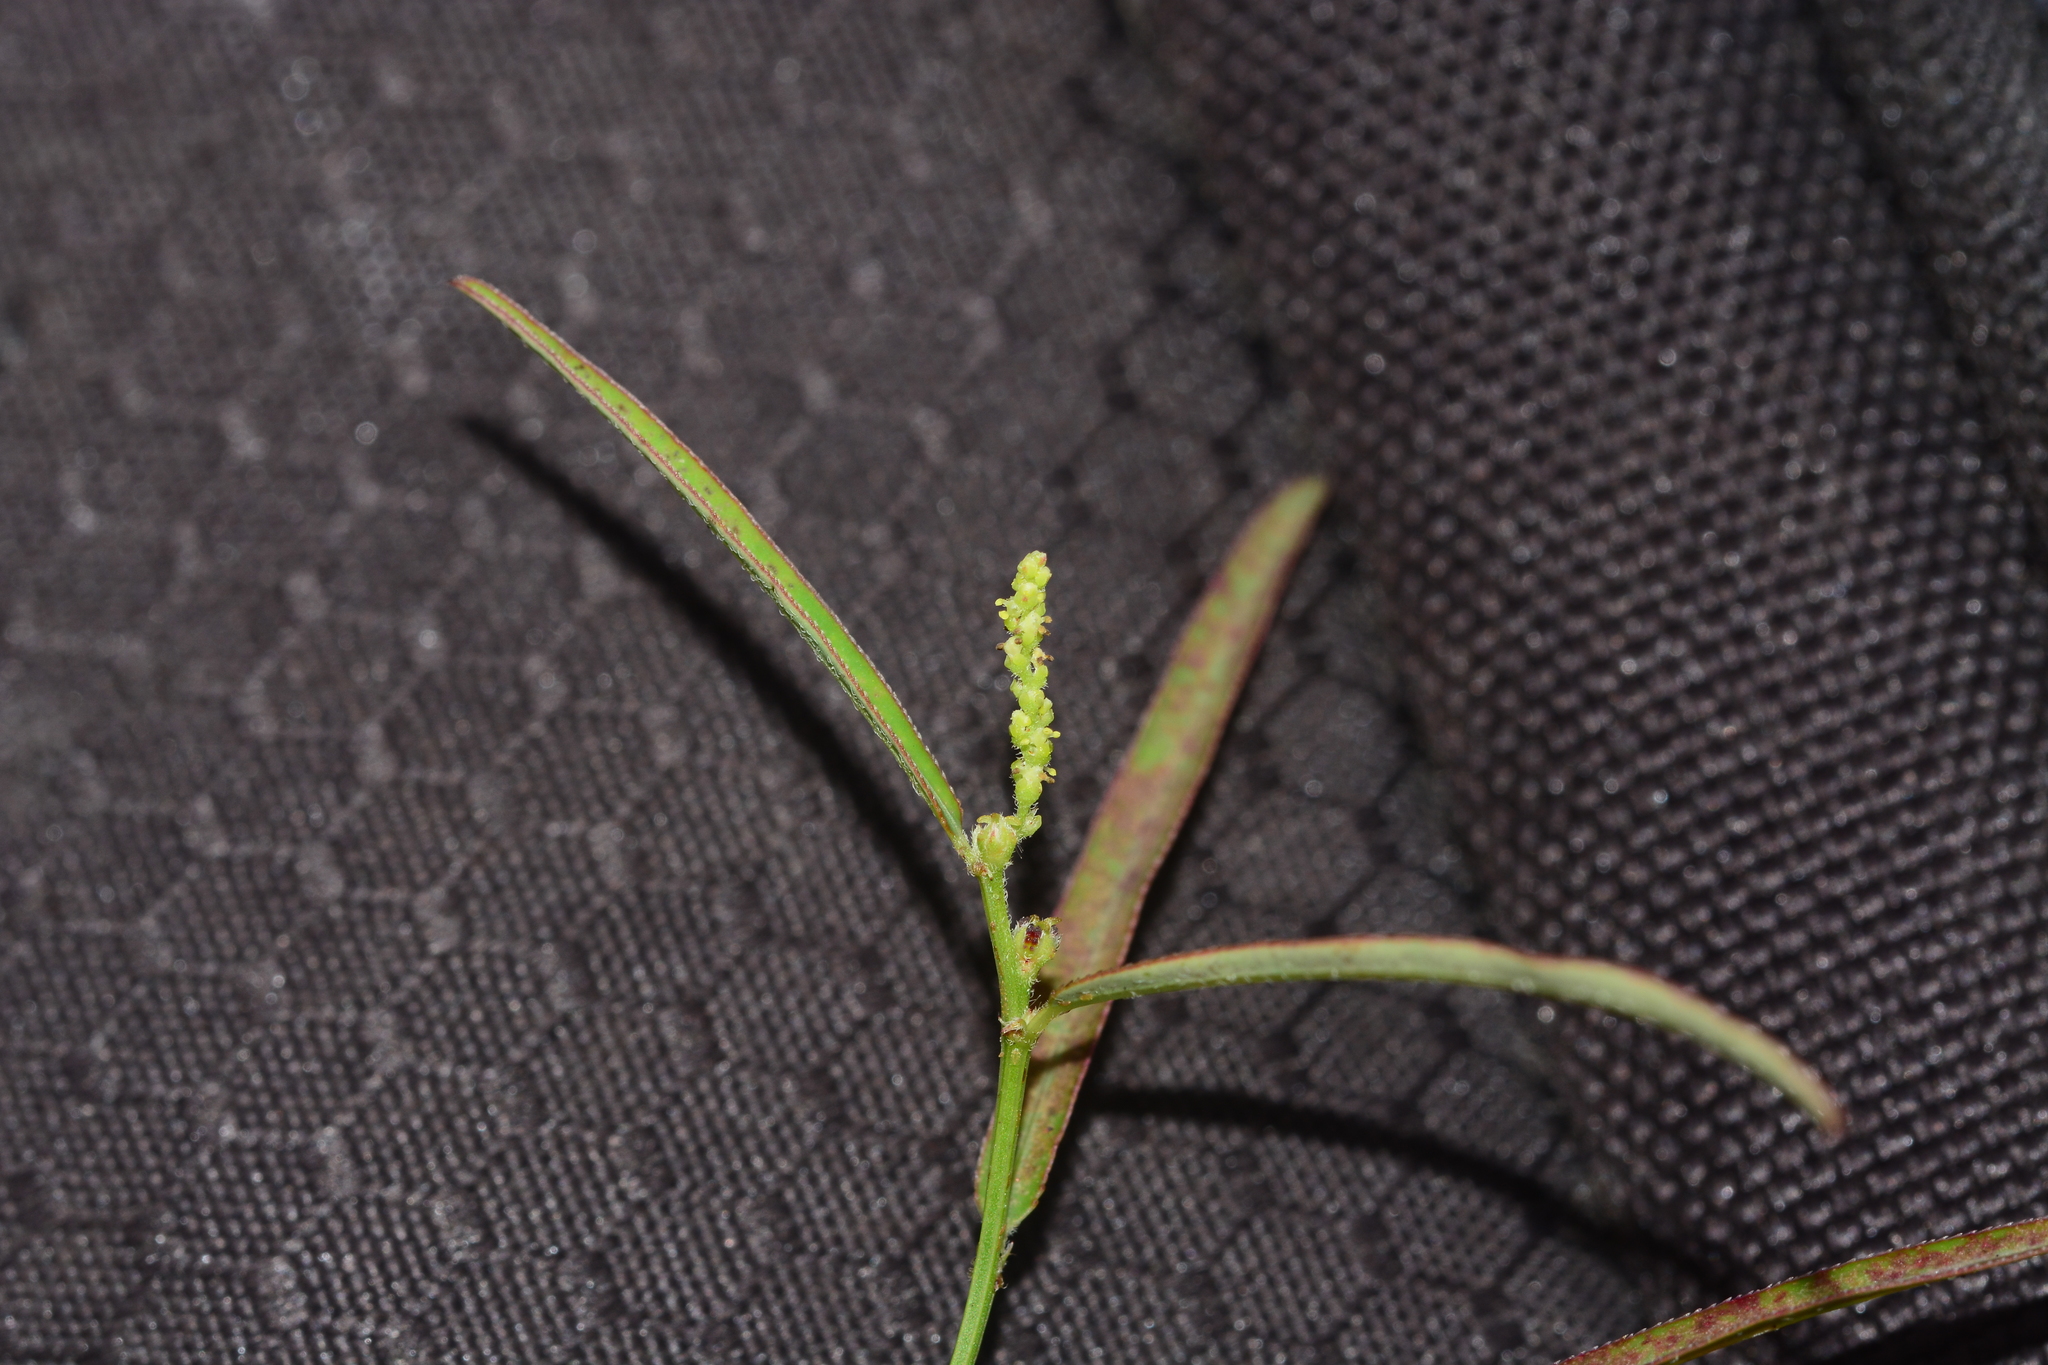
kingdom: Plantae
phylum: Tracheophyta
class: Magnoliopsida
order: Malpighiales
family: Euphorbiaceae
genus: Microstachys
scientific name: Microstachys chamaelea
